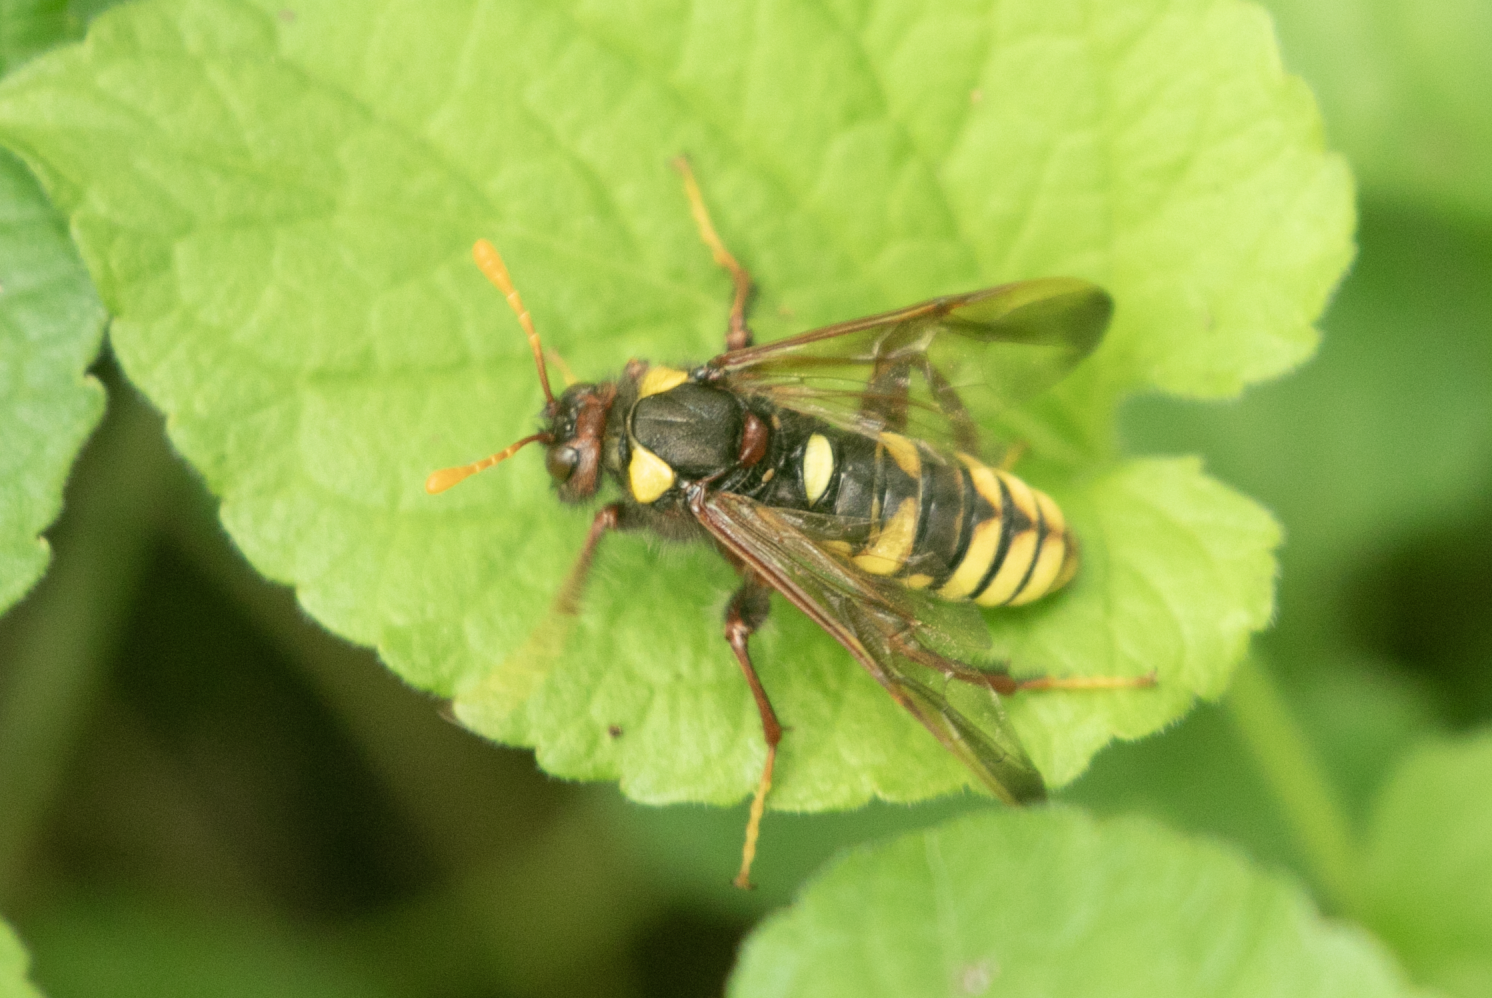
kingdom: Animalia
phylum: Arthropoda
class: Insecta
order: Hymenoptera
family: Cimbicidae
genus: Cimbex
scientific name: Cimbex quadrimaculatus
